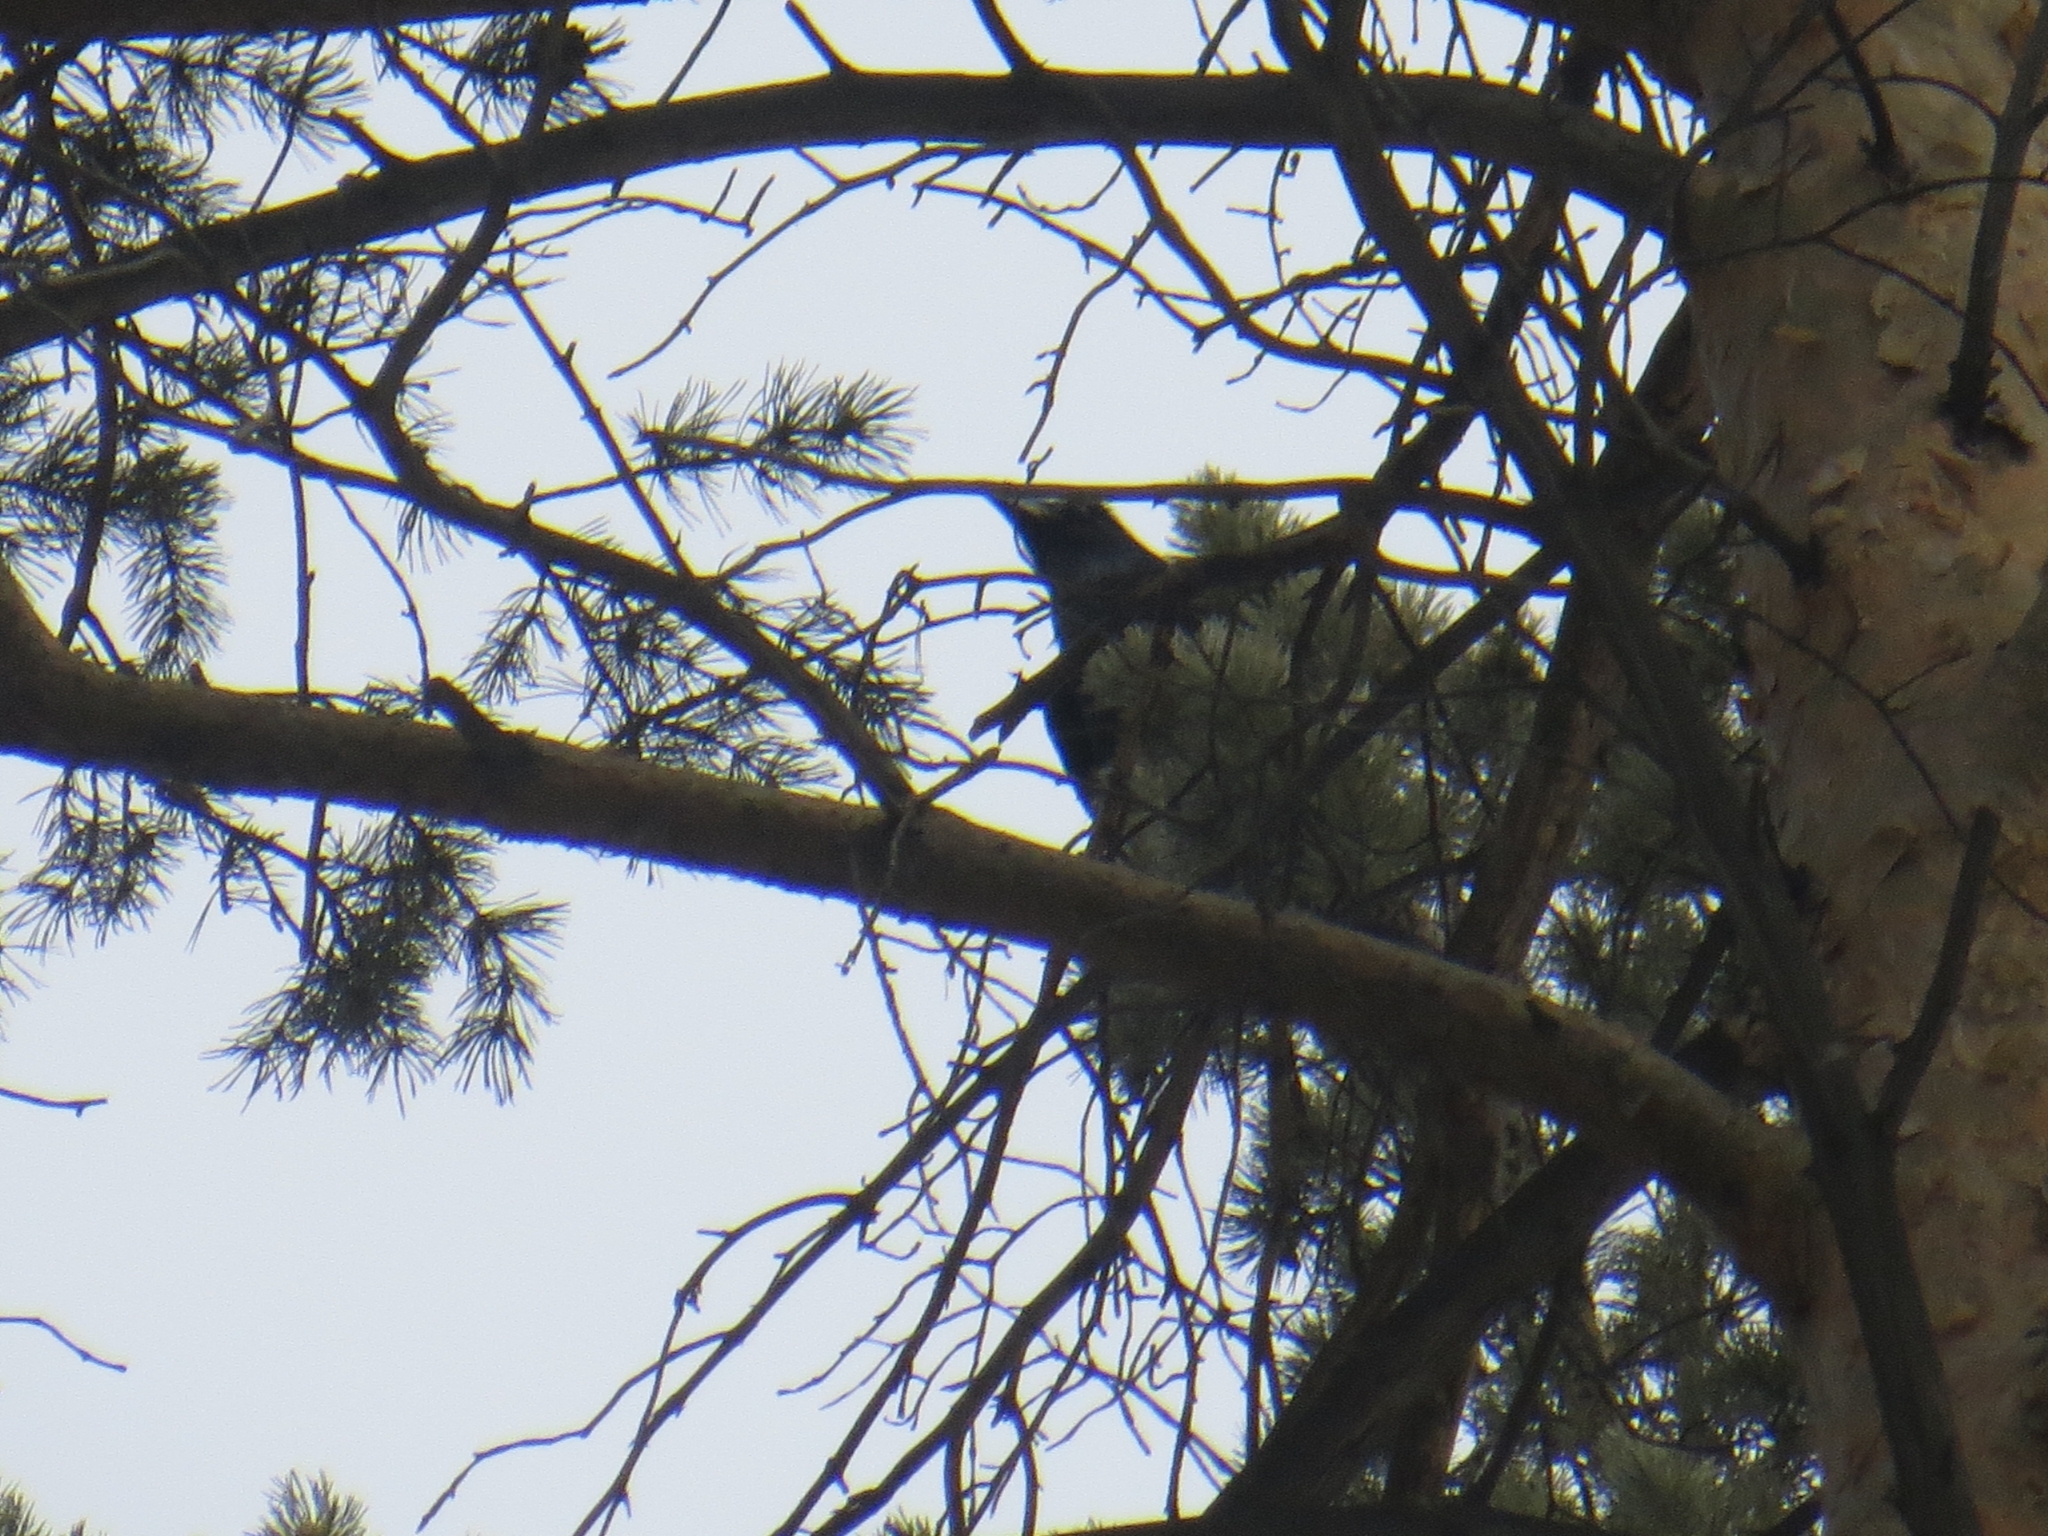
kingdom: Animalia
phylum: Chordata
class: Aves
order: Passeriformes
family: Corvidae
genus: Corvus
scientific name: Corvus corax
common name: Common raven
